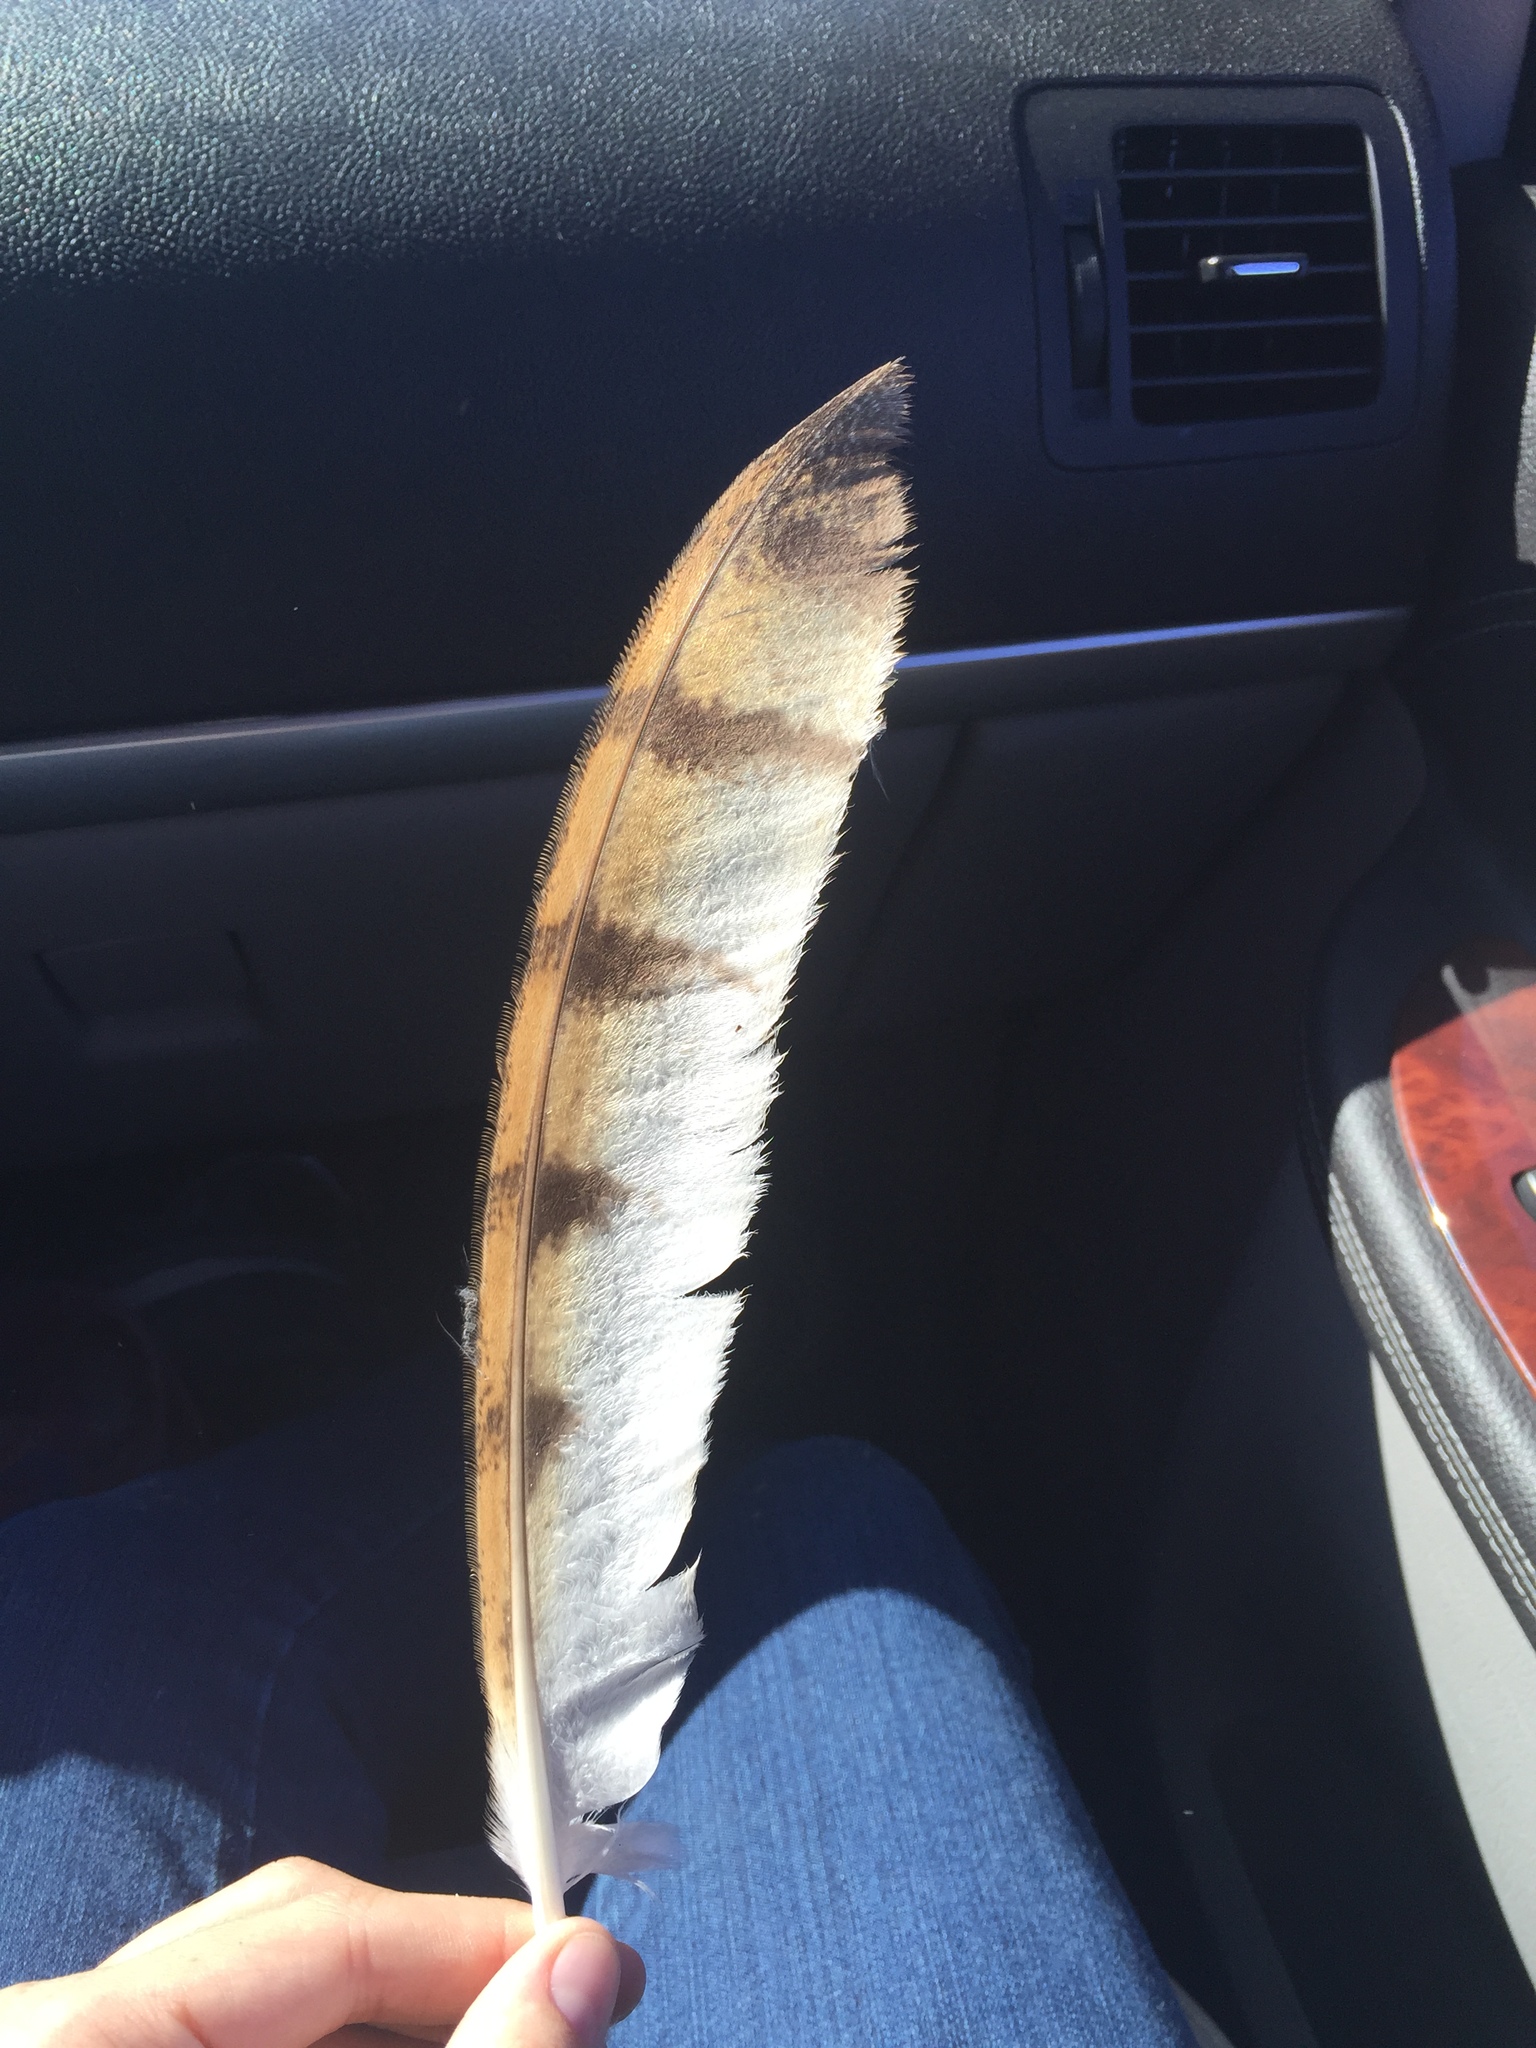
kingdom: Animalia
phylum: Chordata
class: Aves
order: Strigiformes
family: Tytonidae
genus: Tyto
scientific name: Tyto alba
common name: Barn owl
